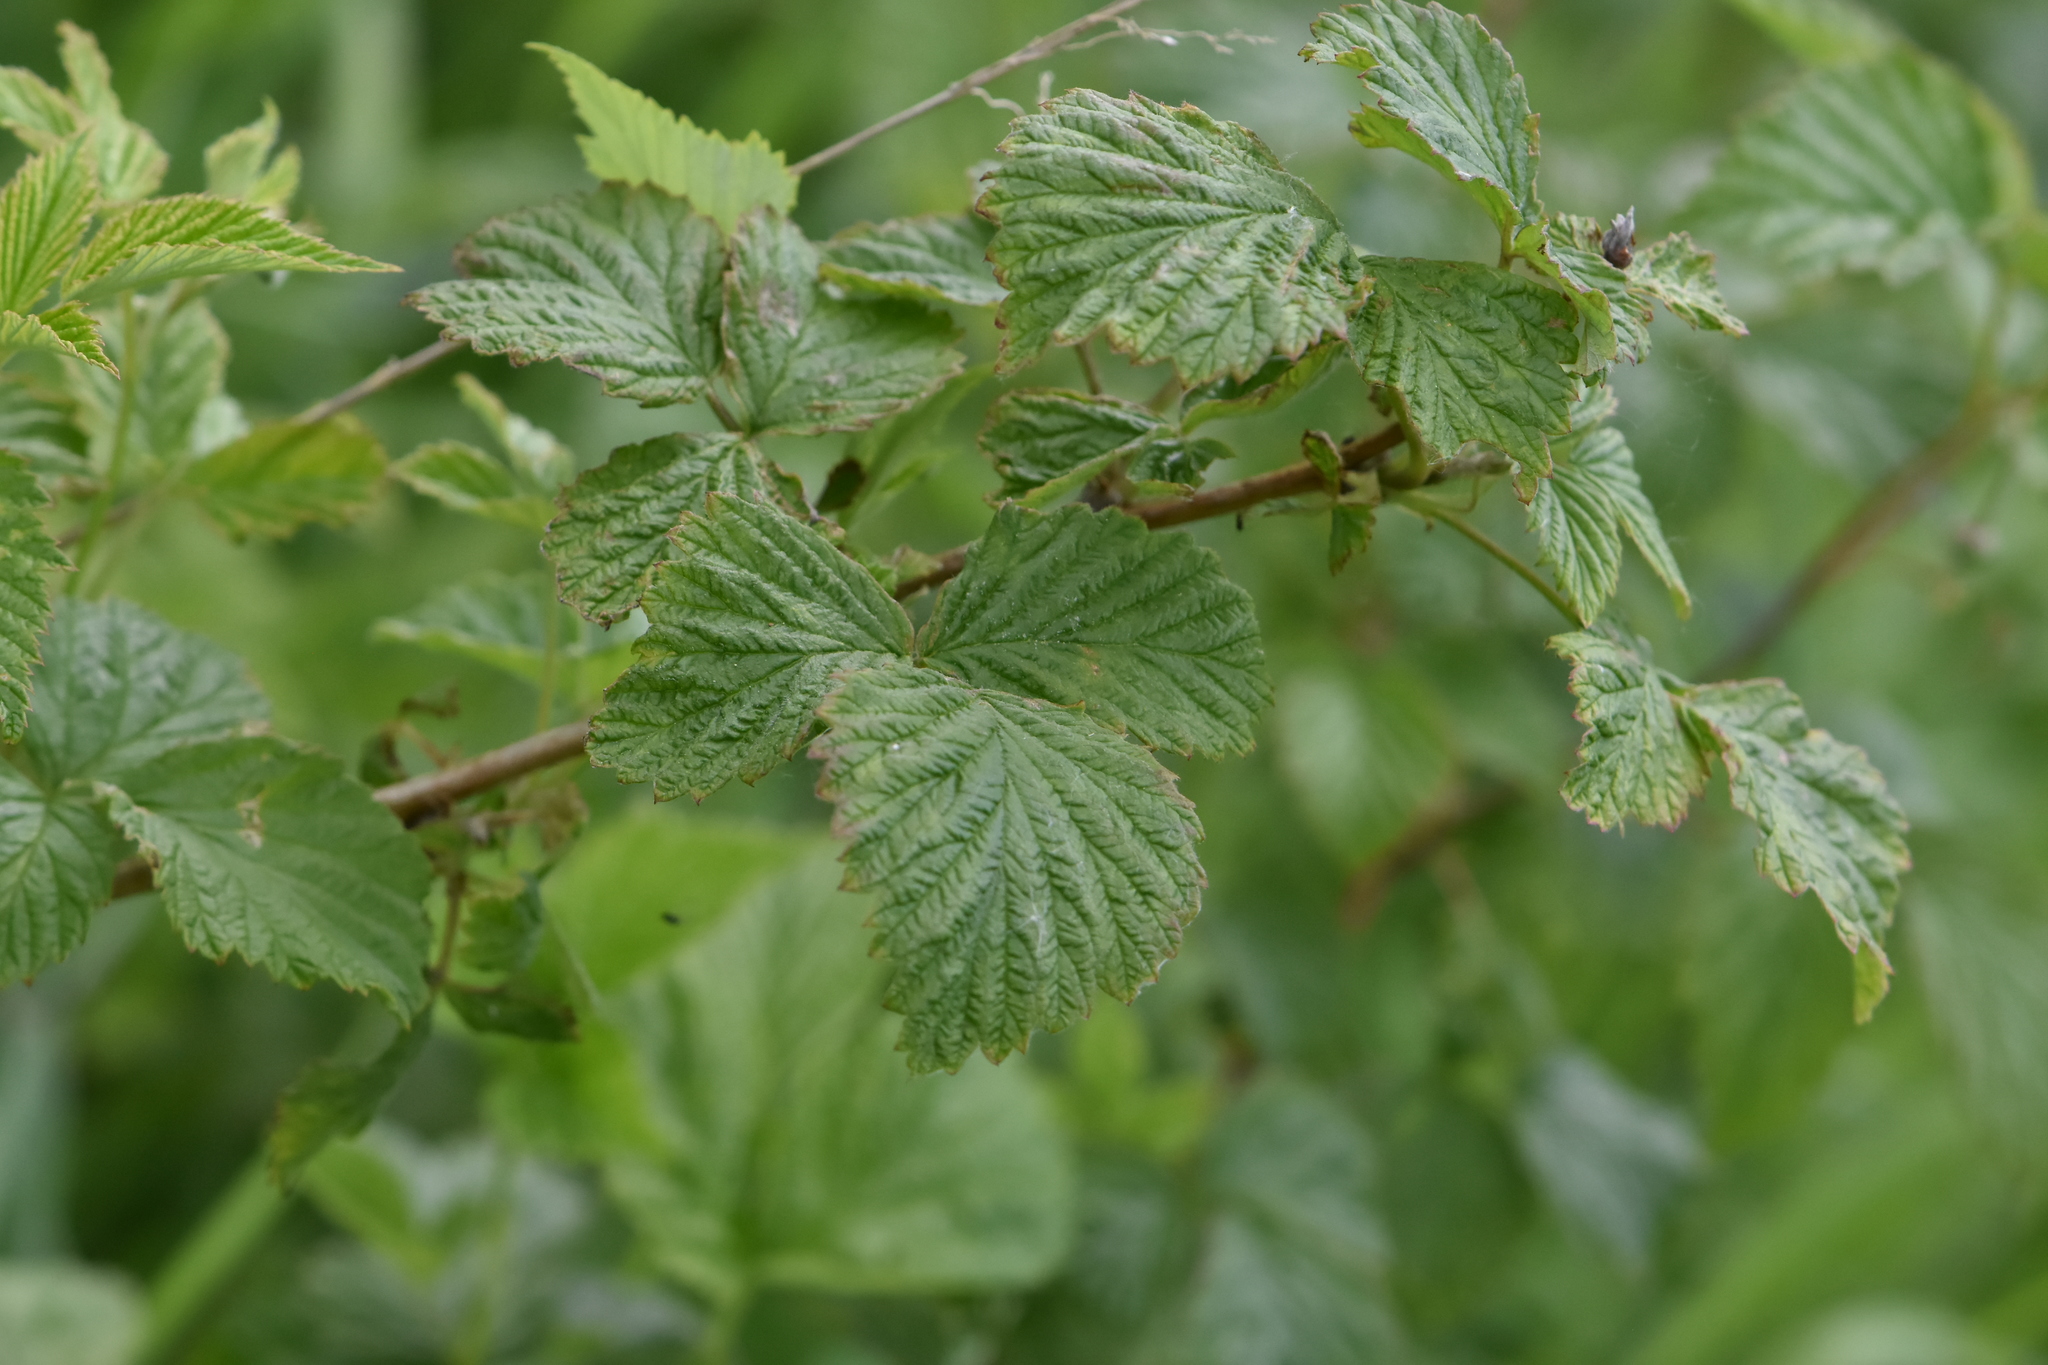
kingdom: Plantae
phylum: Tracheophyta
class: Magnoliopsida
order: Rosales
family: Rosaceae
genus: Rubus
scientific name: Rubus idaeus
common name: Raspberry
